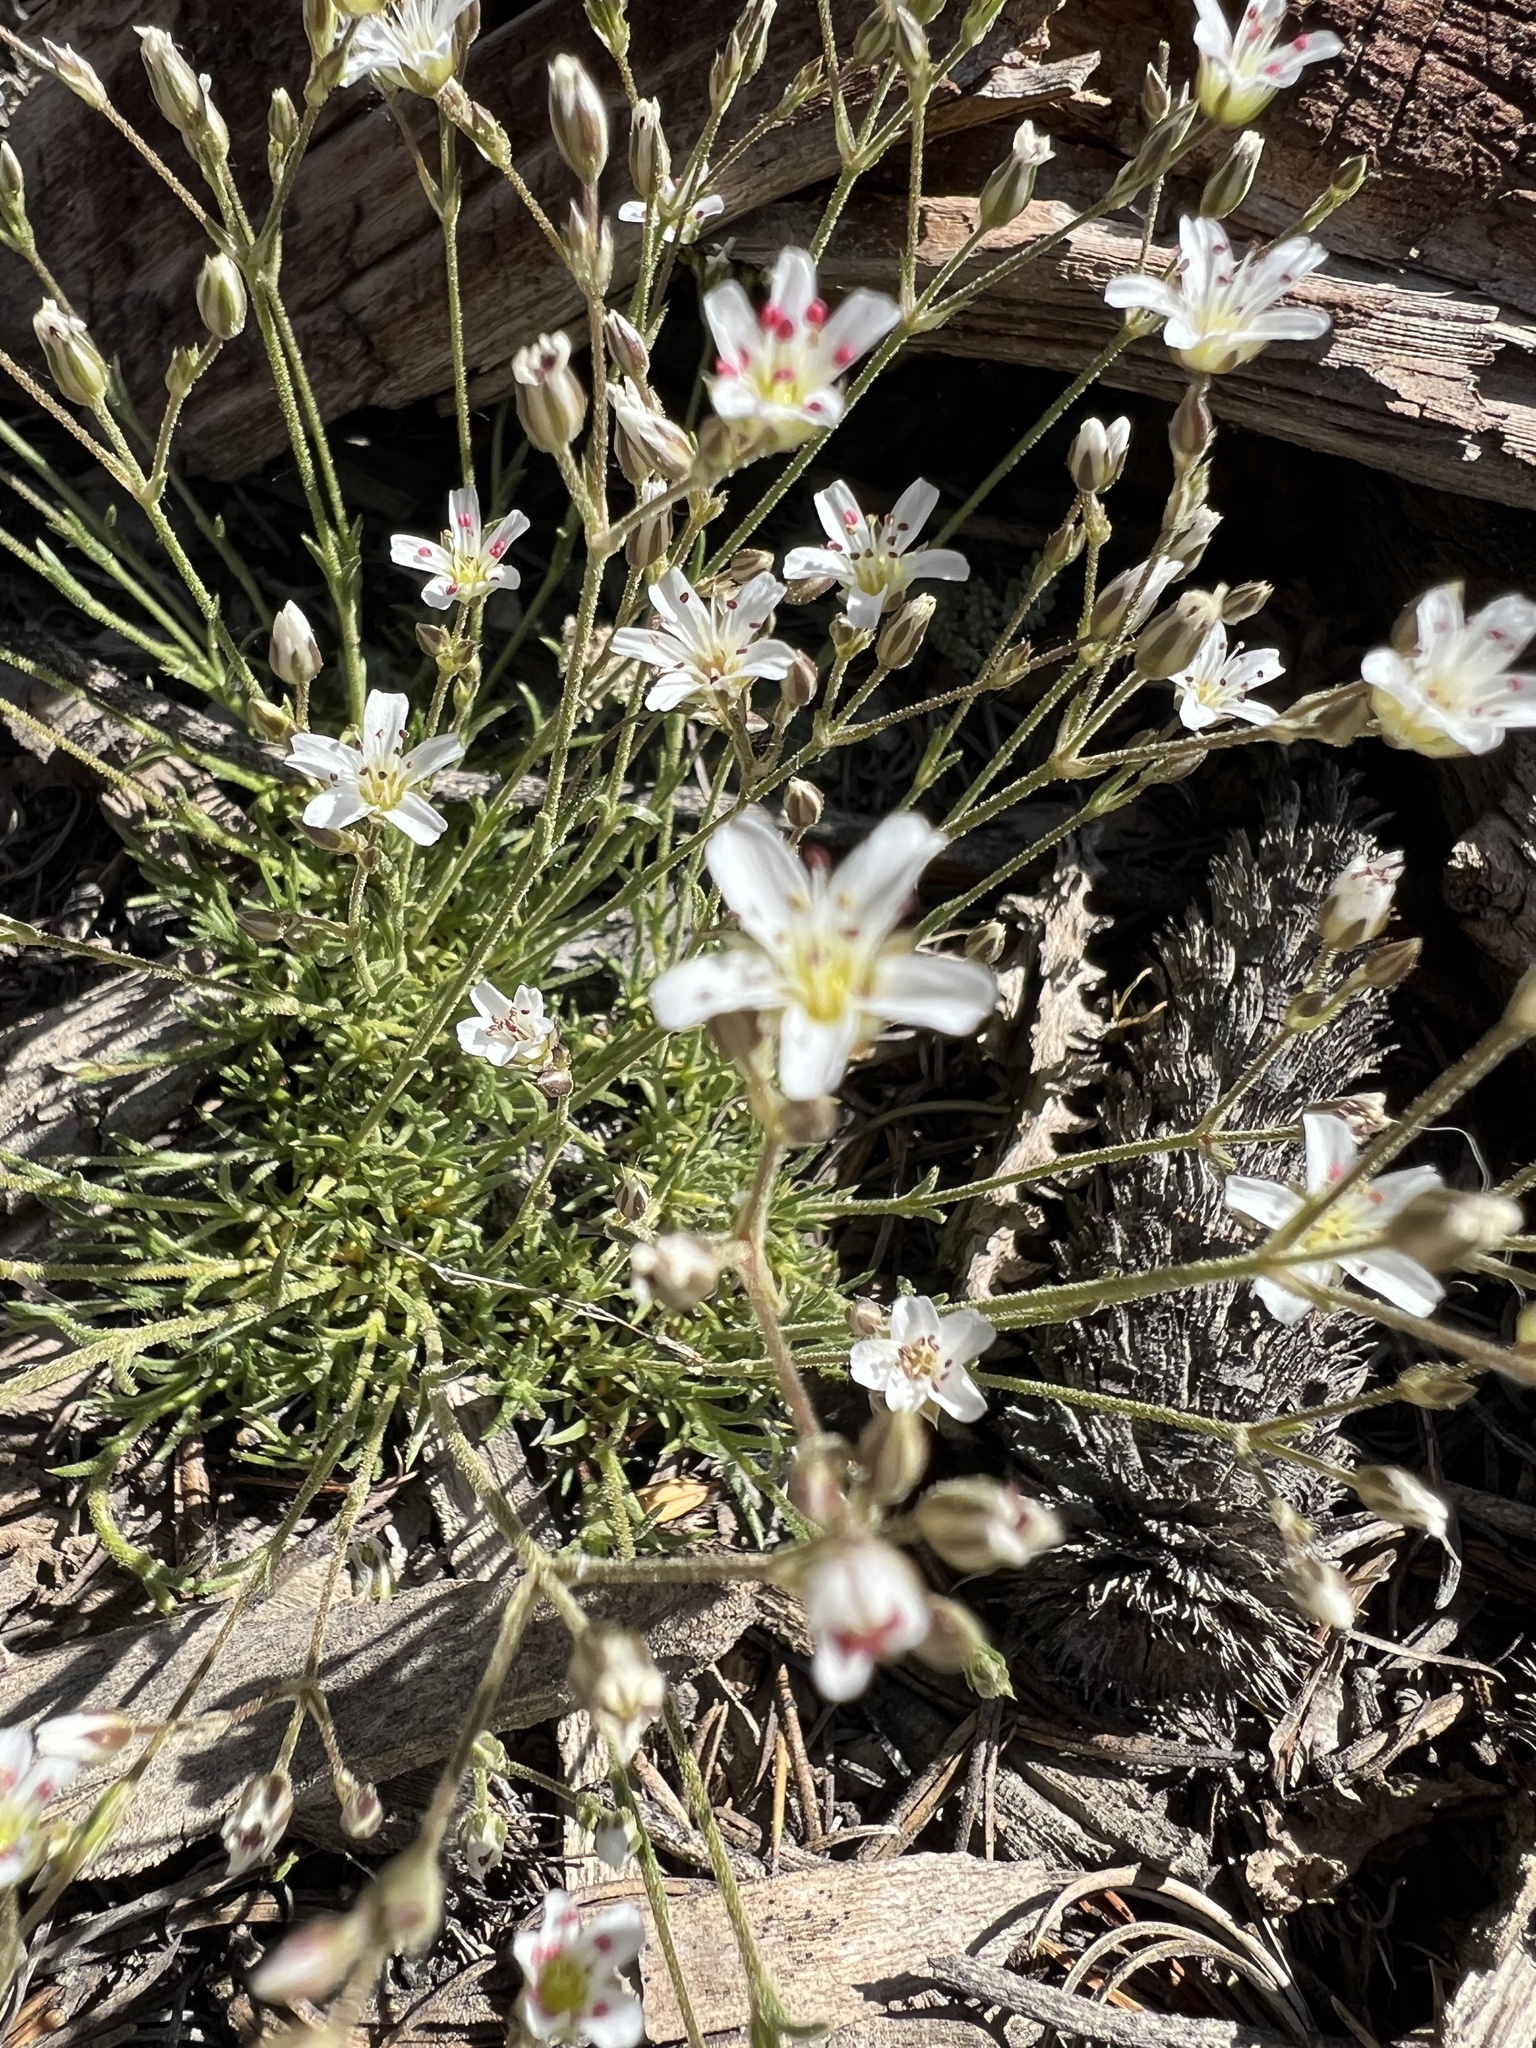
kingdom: Plantae
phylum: Tracheophyta
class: Magnoliopsida
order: Caryophyllales
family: Caryophyllaceae
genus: Eremogone
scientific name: Eremogone kingii
